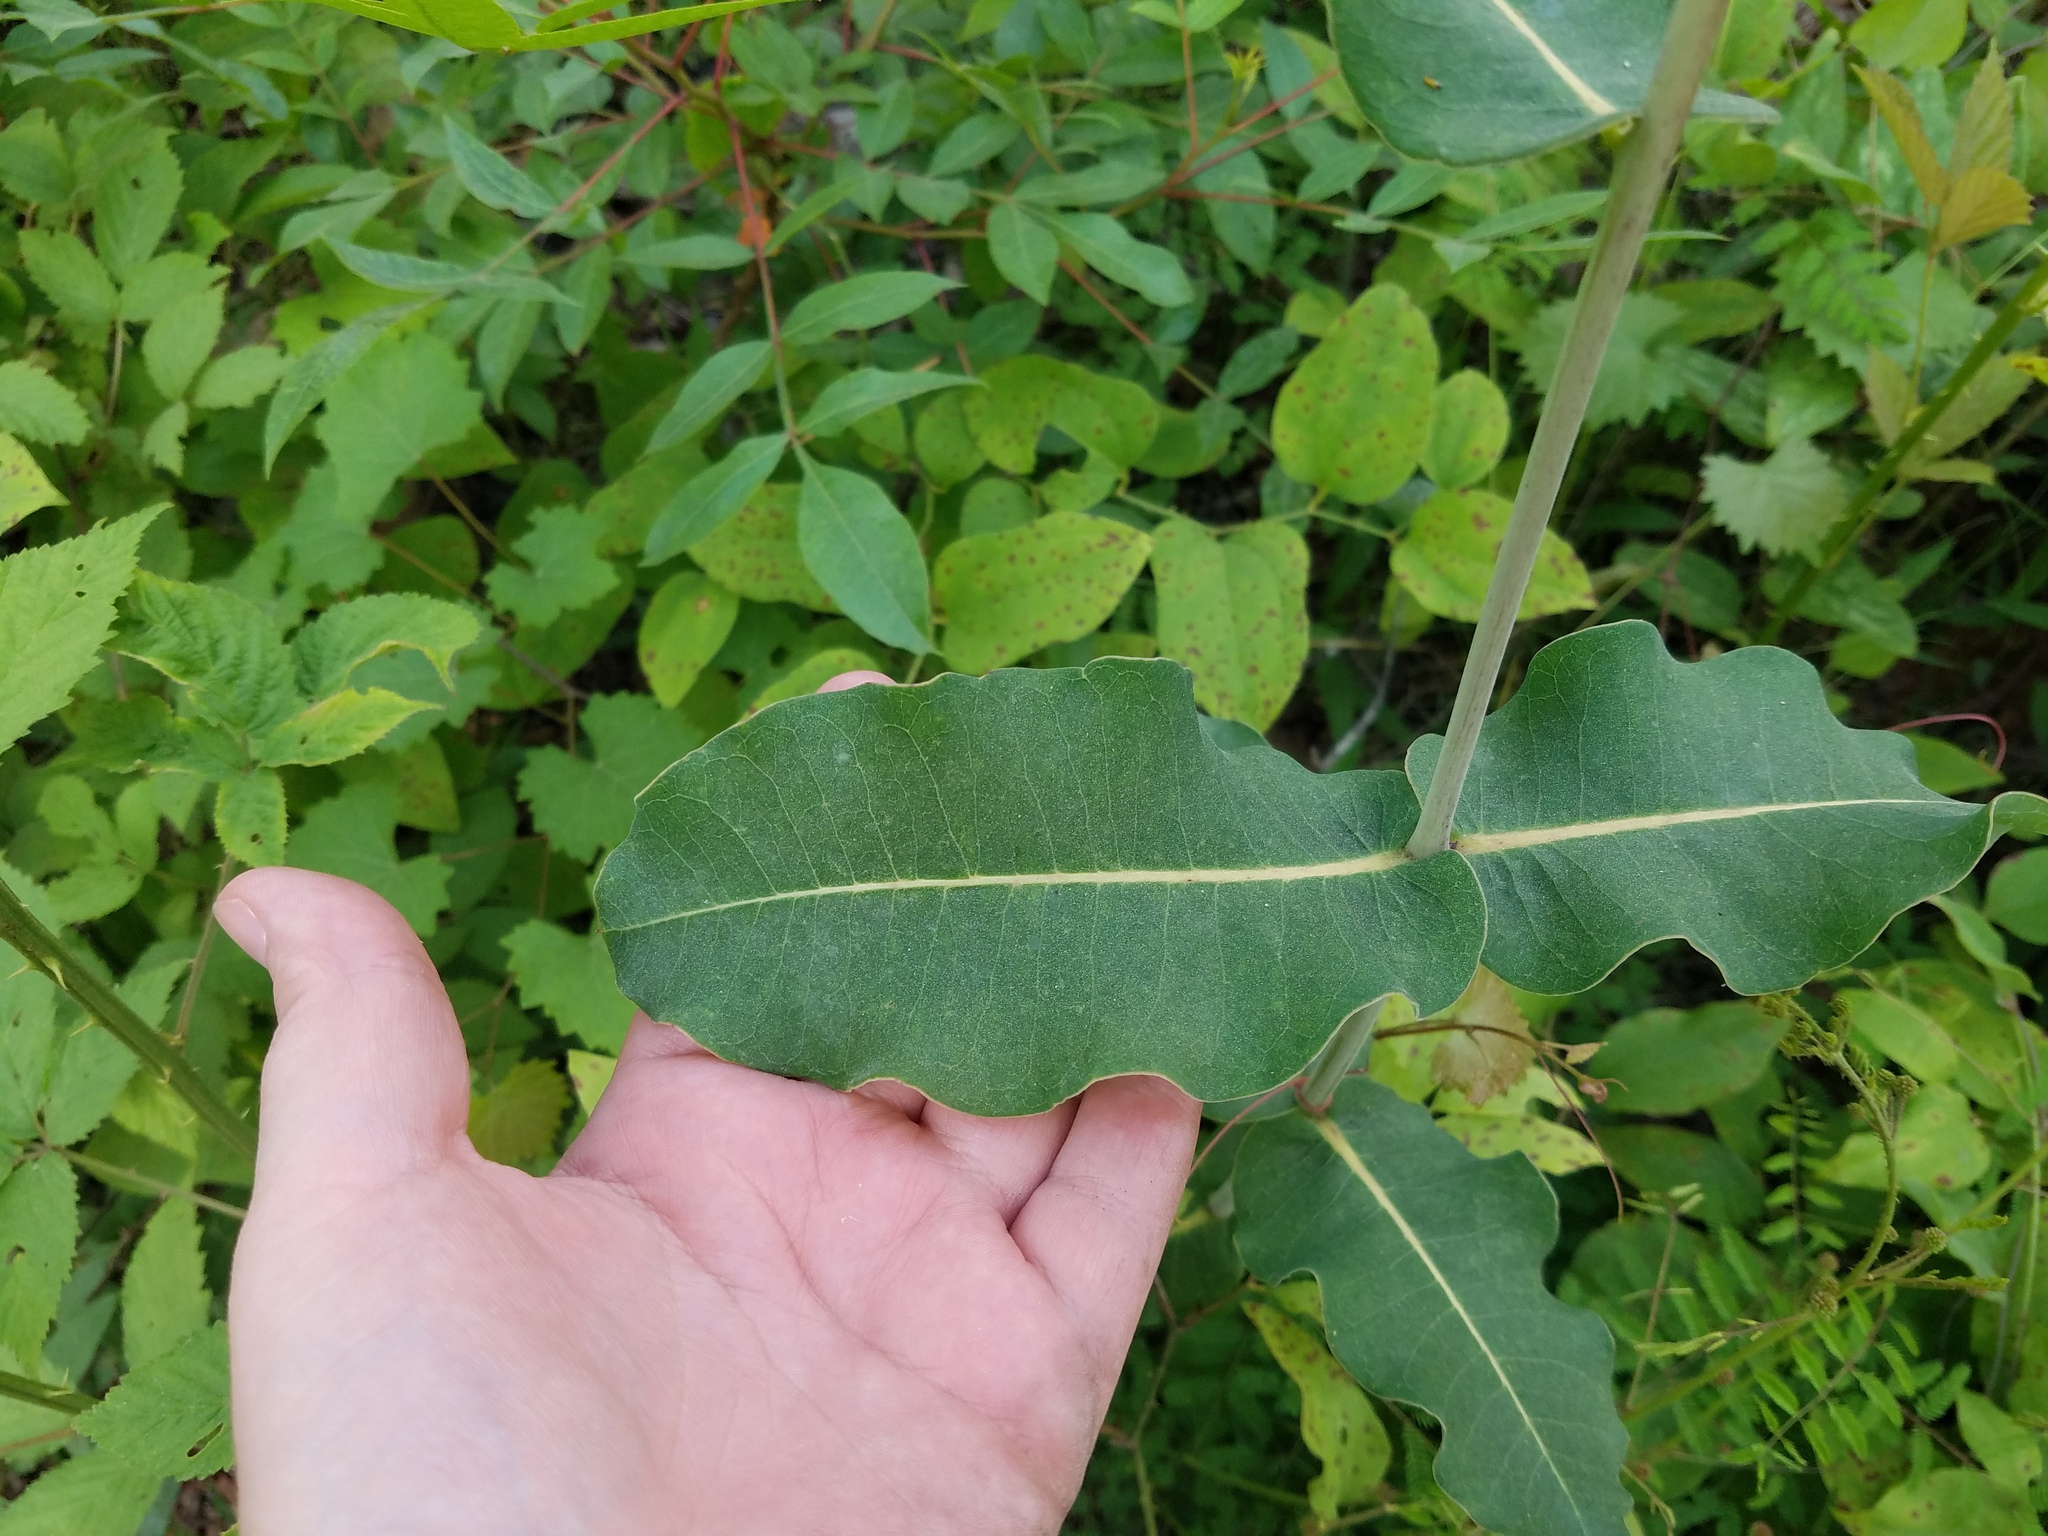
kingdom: Plantae
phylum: Tracheophyta
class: Magnoliopsida
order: Gentianales
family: Apocynaceae
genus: Asclepias
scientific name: Asclepias amplexicaulis
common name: Blunt-leaf milkweed
